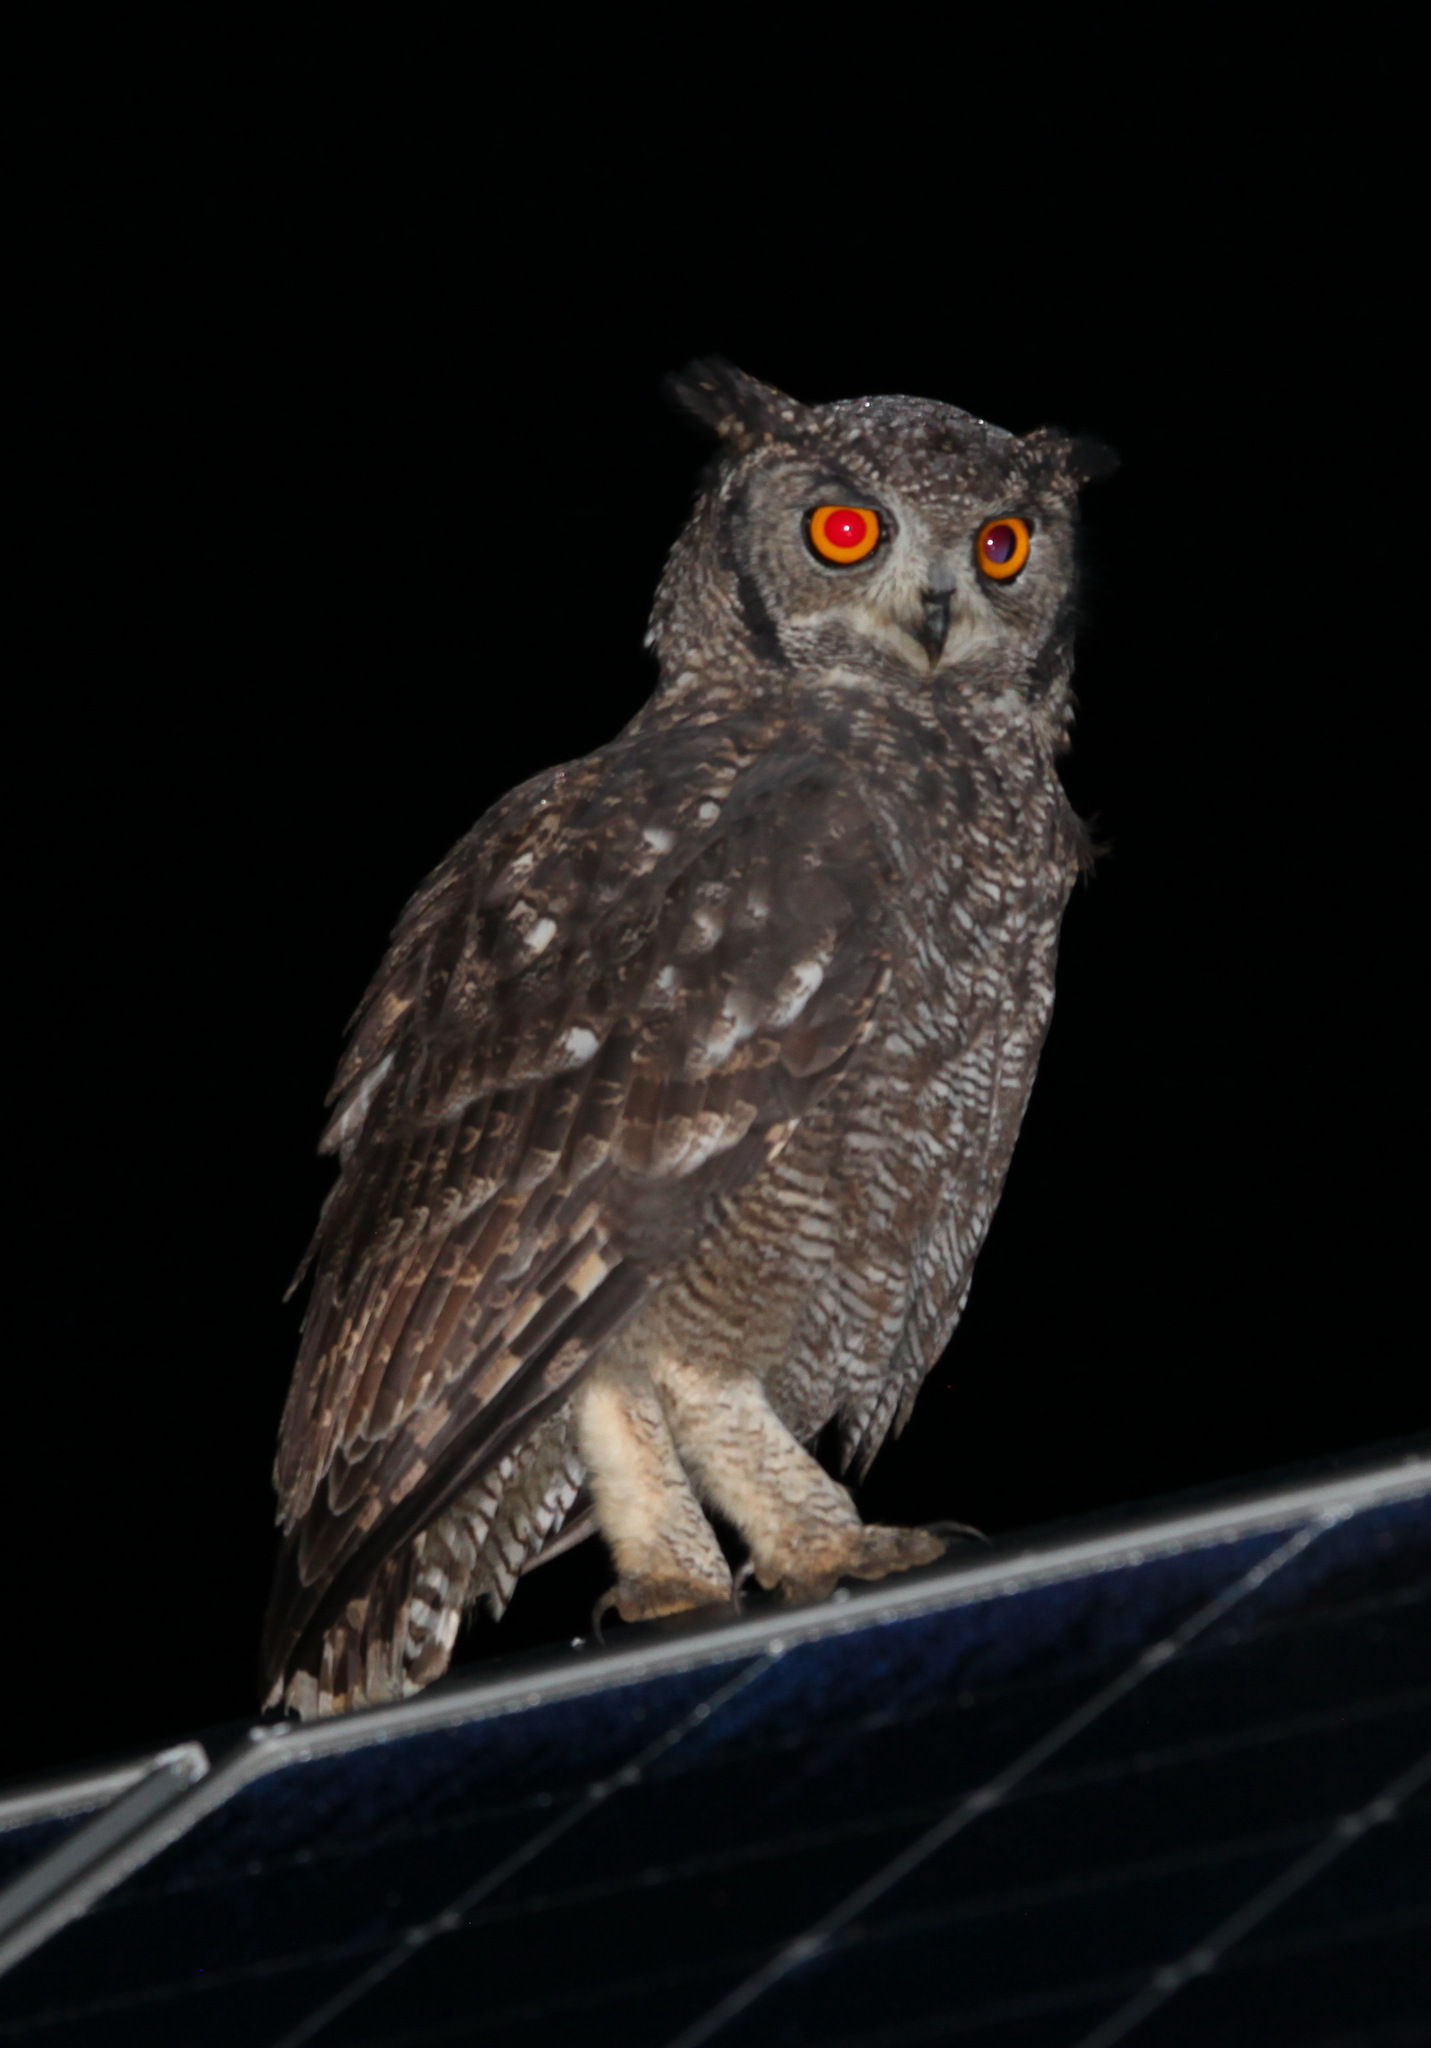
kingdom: Animalia
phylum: Chordata
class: Aves
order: Strigiformes
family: Strigidae
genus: Bubo
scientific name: Bubo africanus
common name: Spotted eagle-owl
